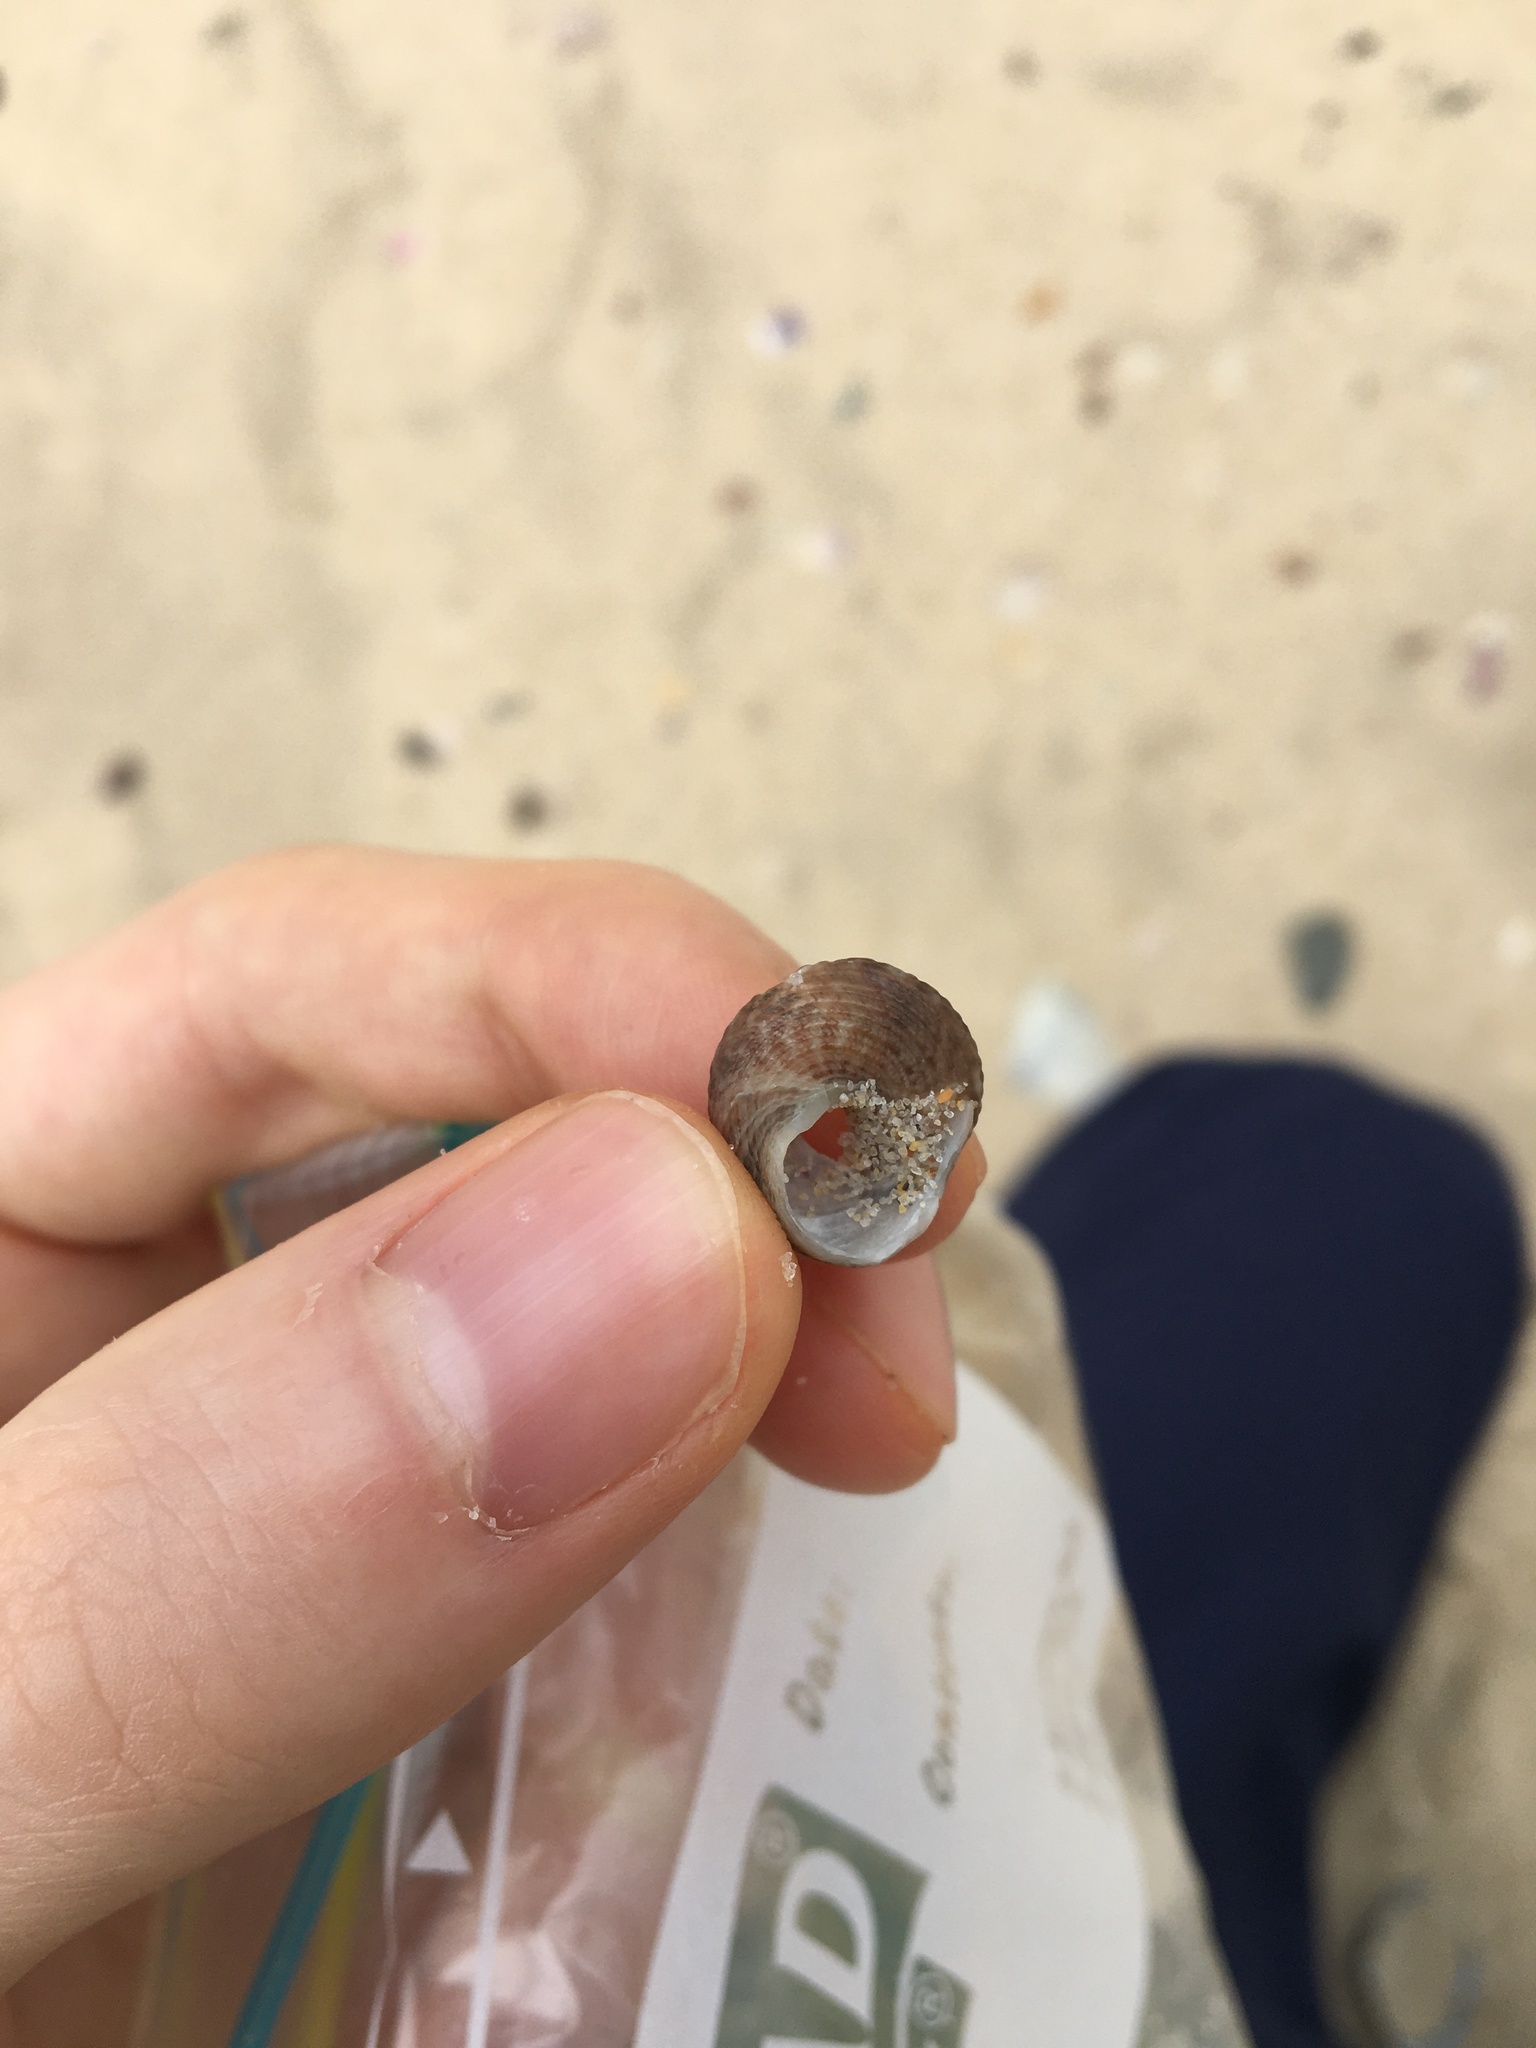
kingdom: Animalia
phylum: Mollusca
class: Gastropoda
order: Trochida
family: Trochidae
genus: Calthalotia
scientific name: Calthalotia fragum
